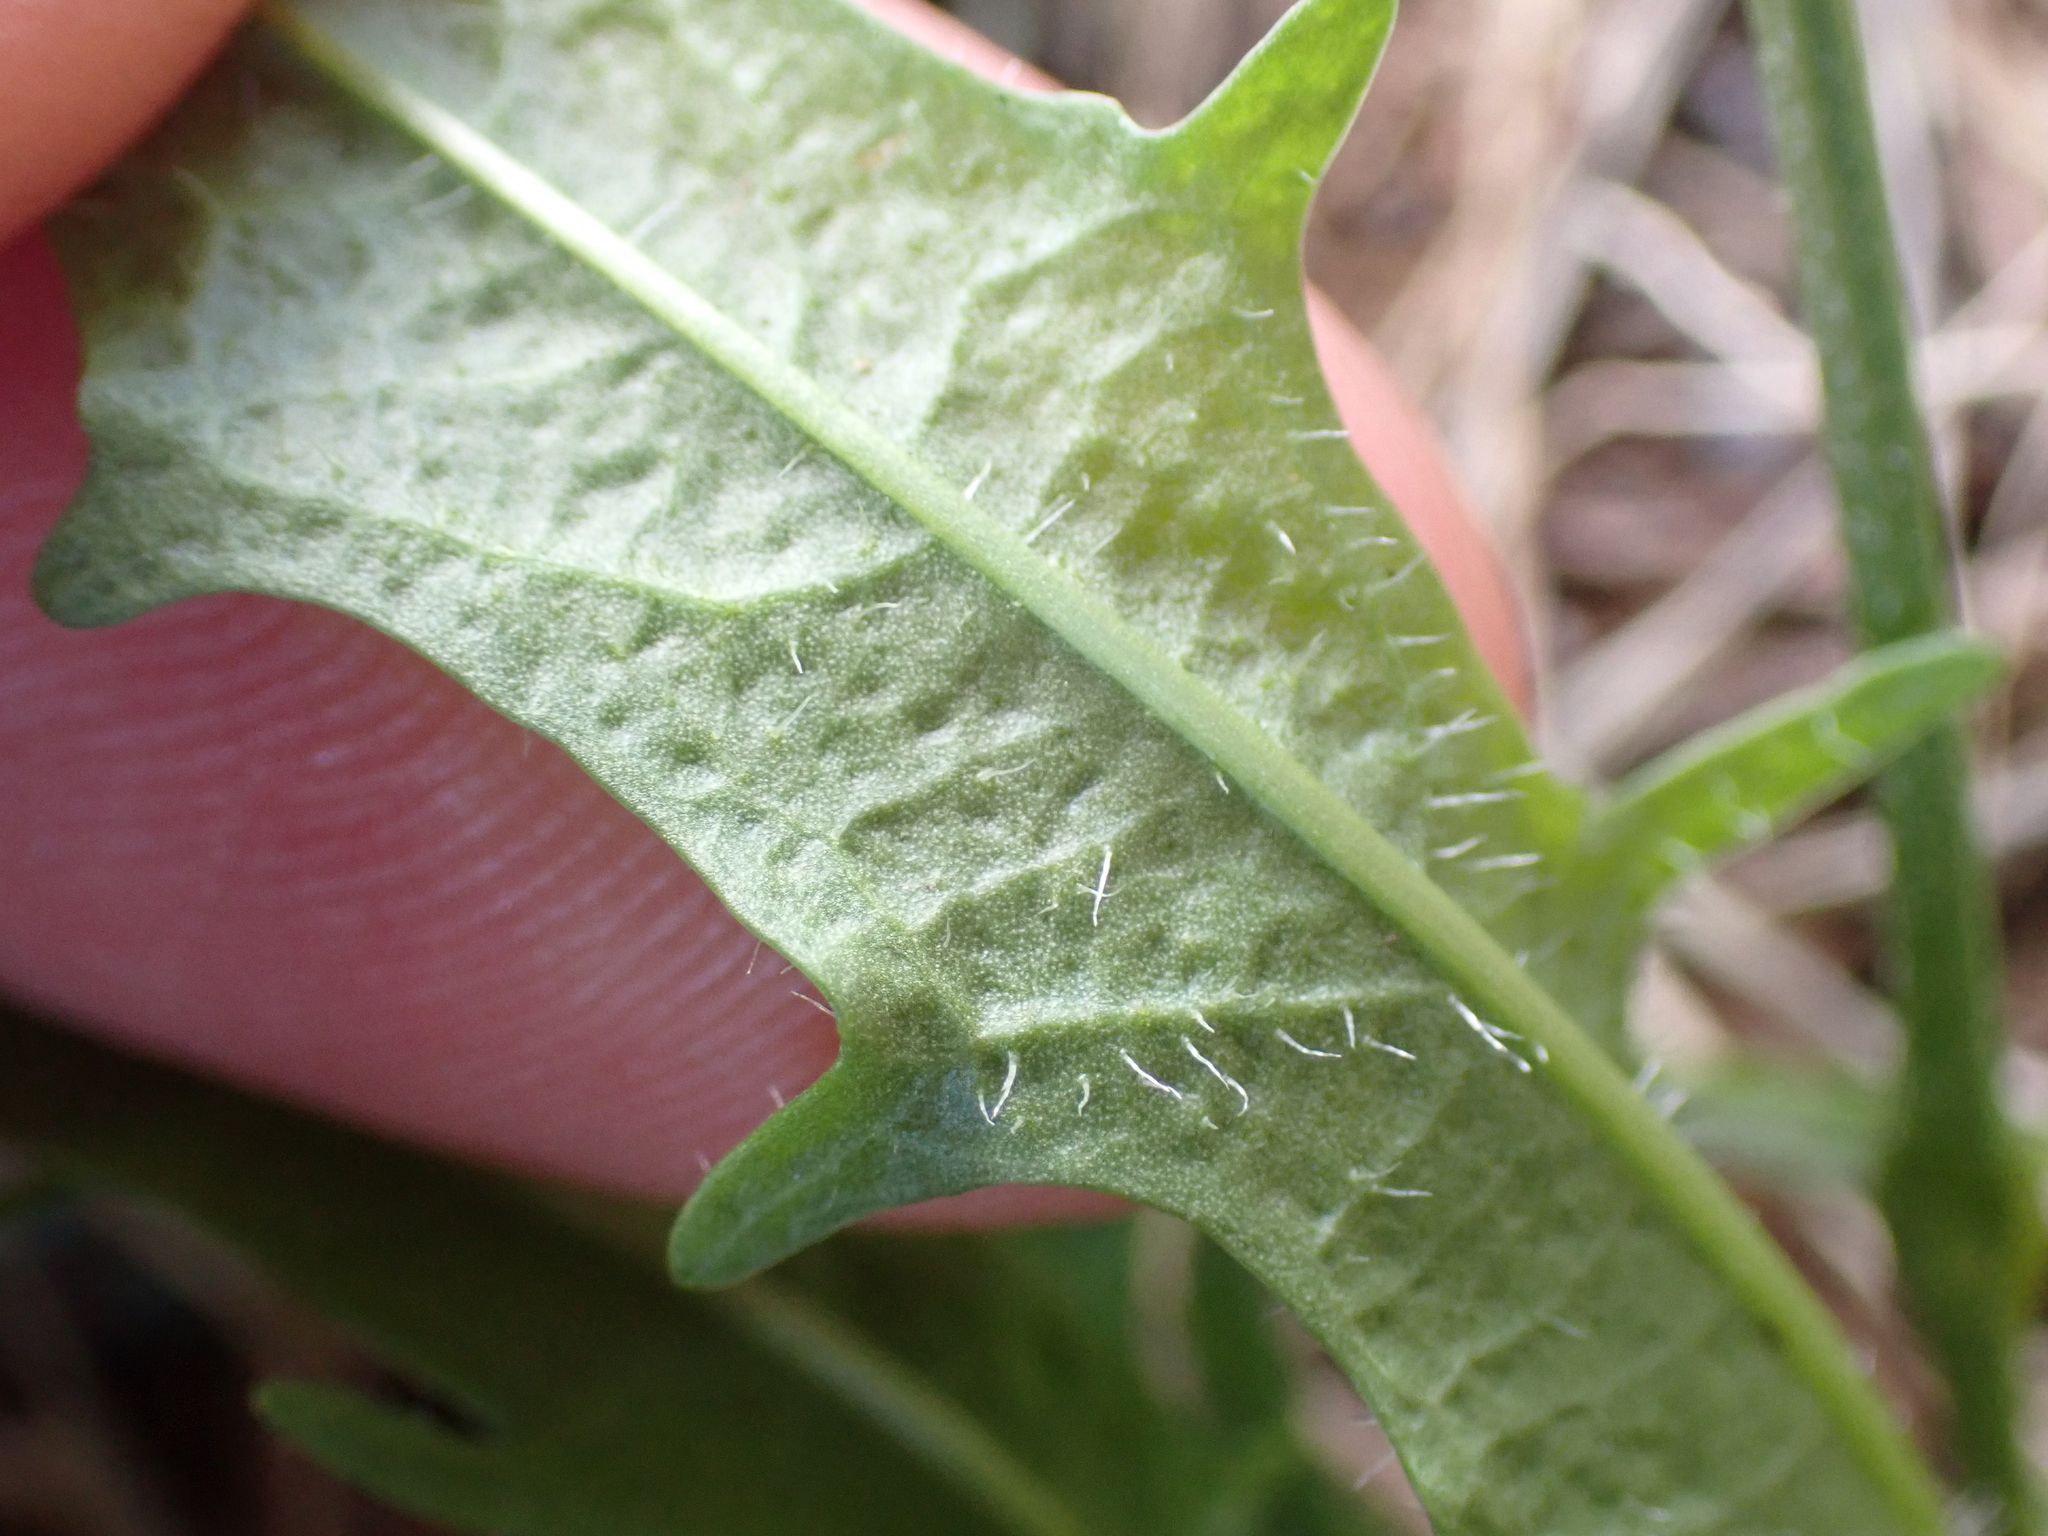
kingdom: Plantae
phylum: Tracheophyta
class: Magnoliopsida
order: Asterales
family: Asteraceae
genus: Scorzoneroides
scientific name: Scorzoneroides autumnalis
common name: Autumn hawkbit
